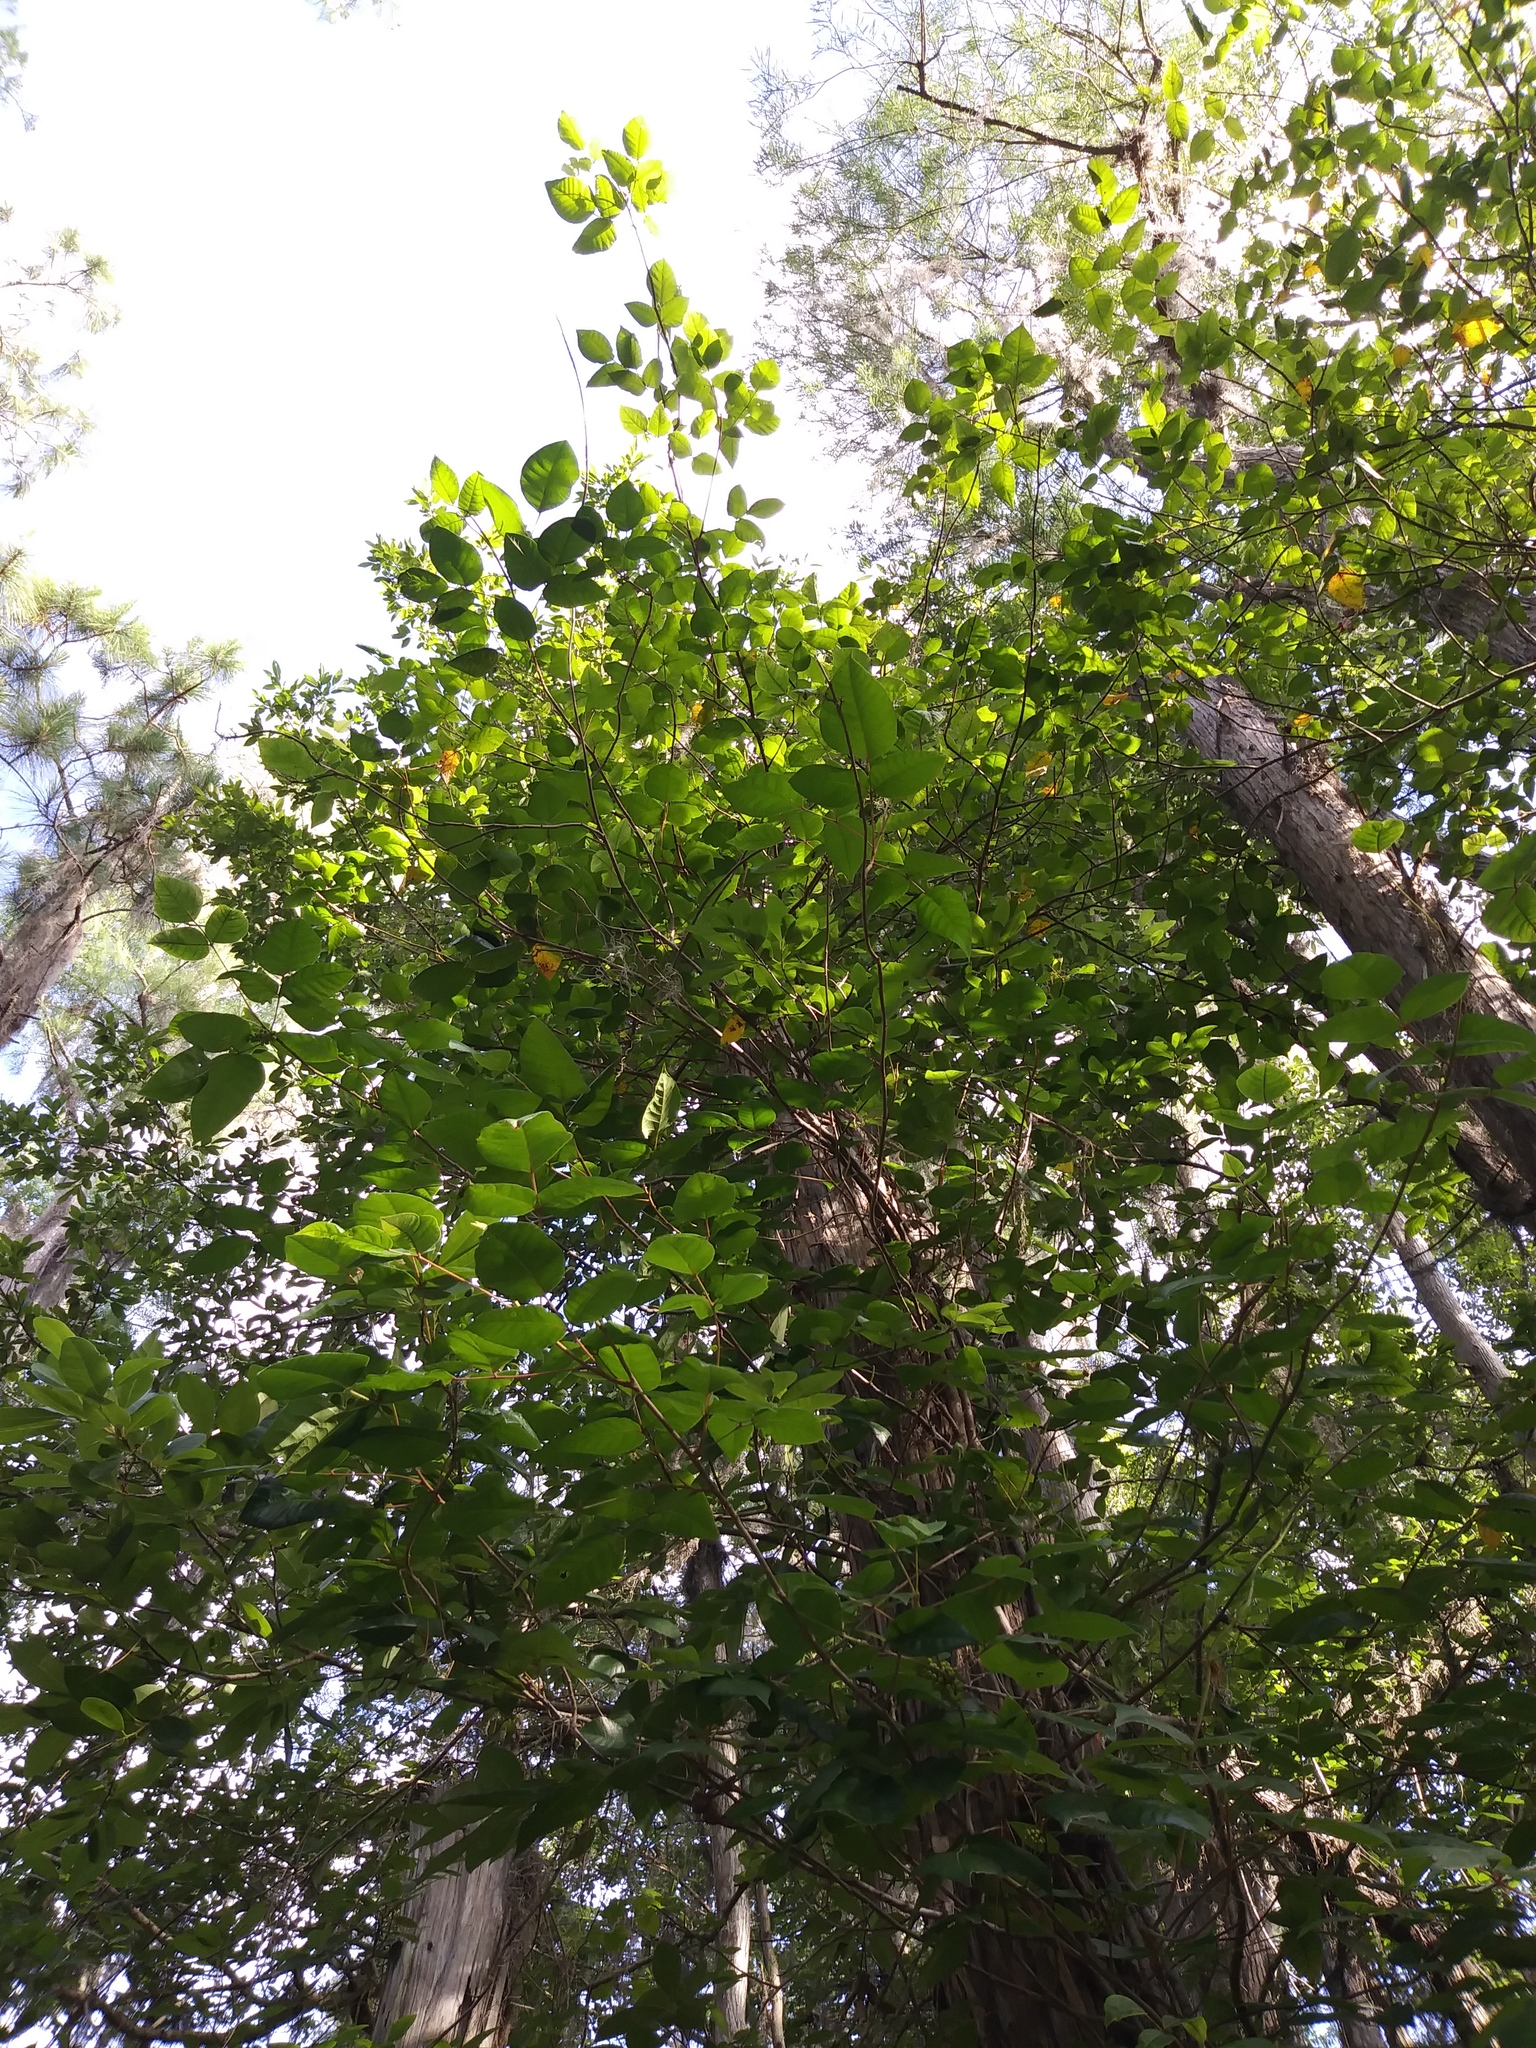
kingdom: Plantae
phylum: Tracheophyta
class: Magnoliopsida
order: Sapindales
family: Anacardiaceae
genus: Toxicodendron
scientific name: Toxicodendron radicans
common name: Poison ivy
